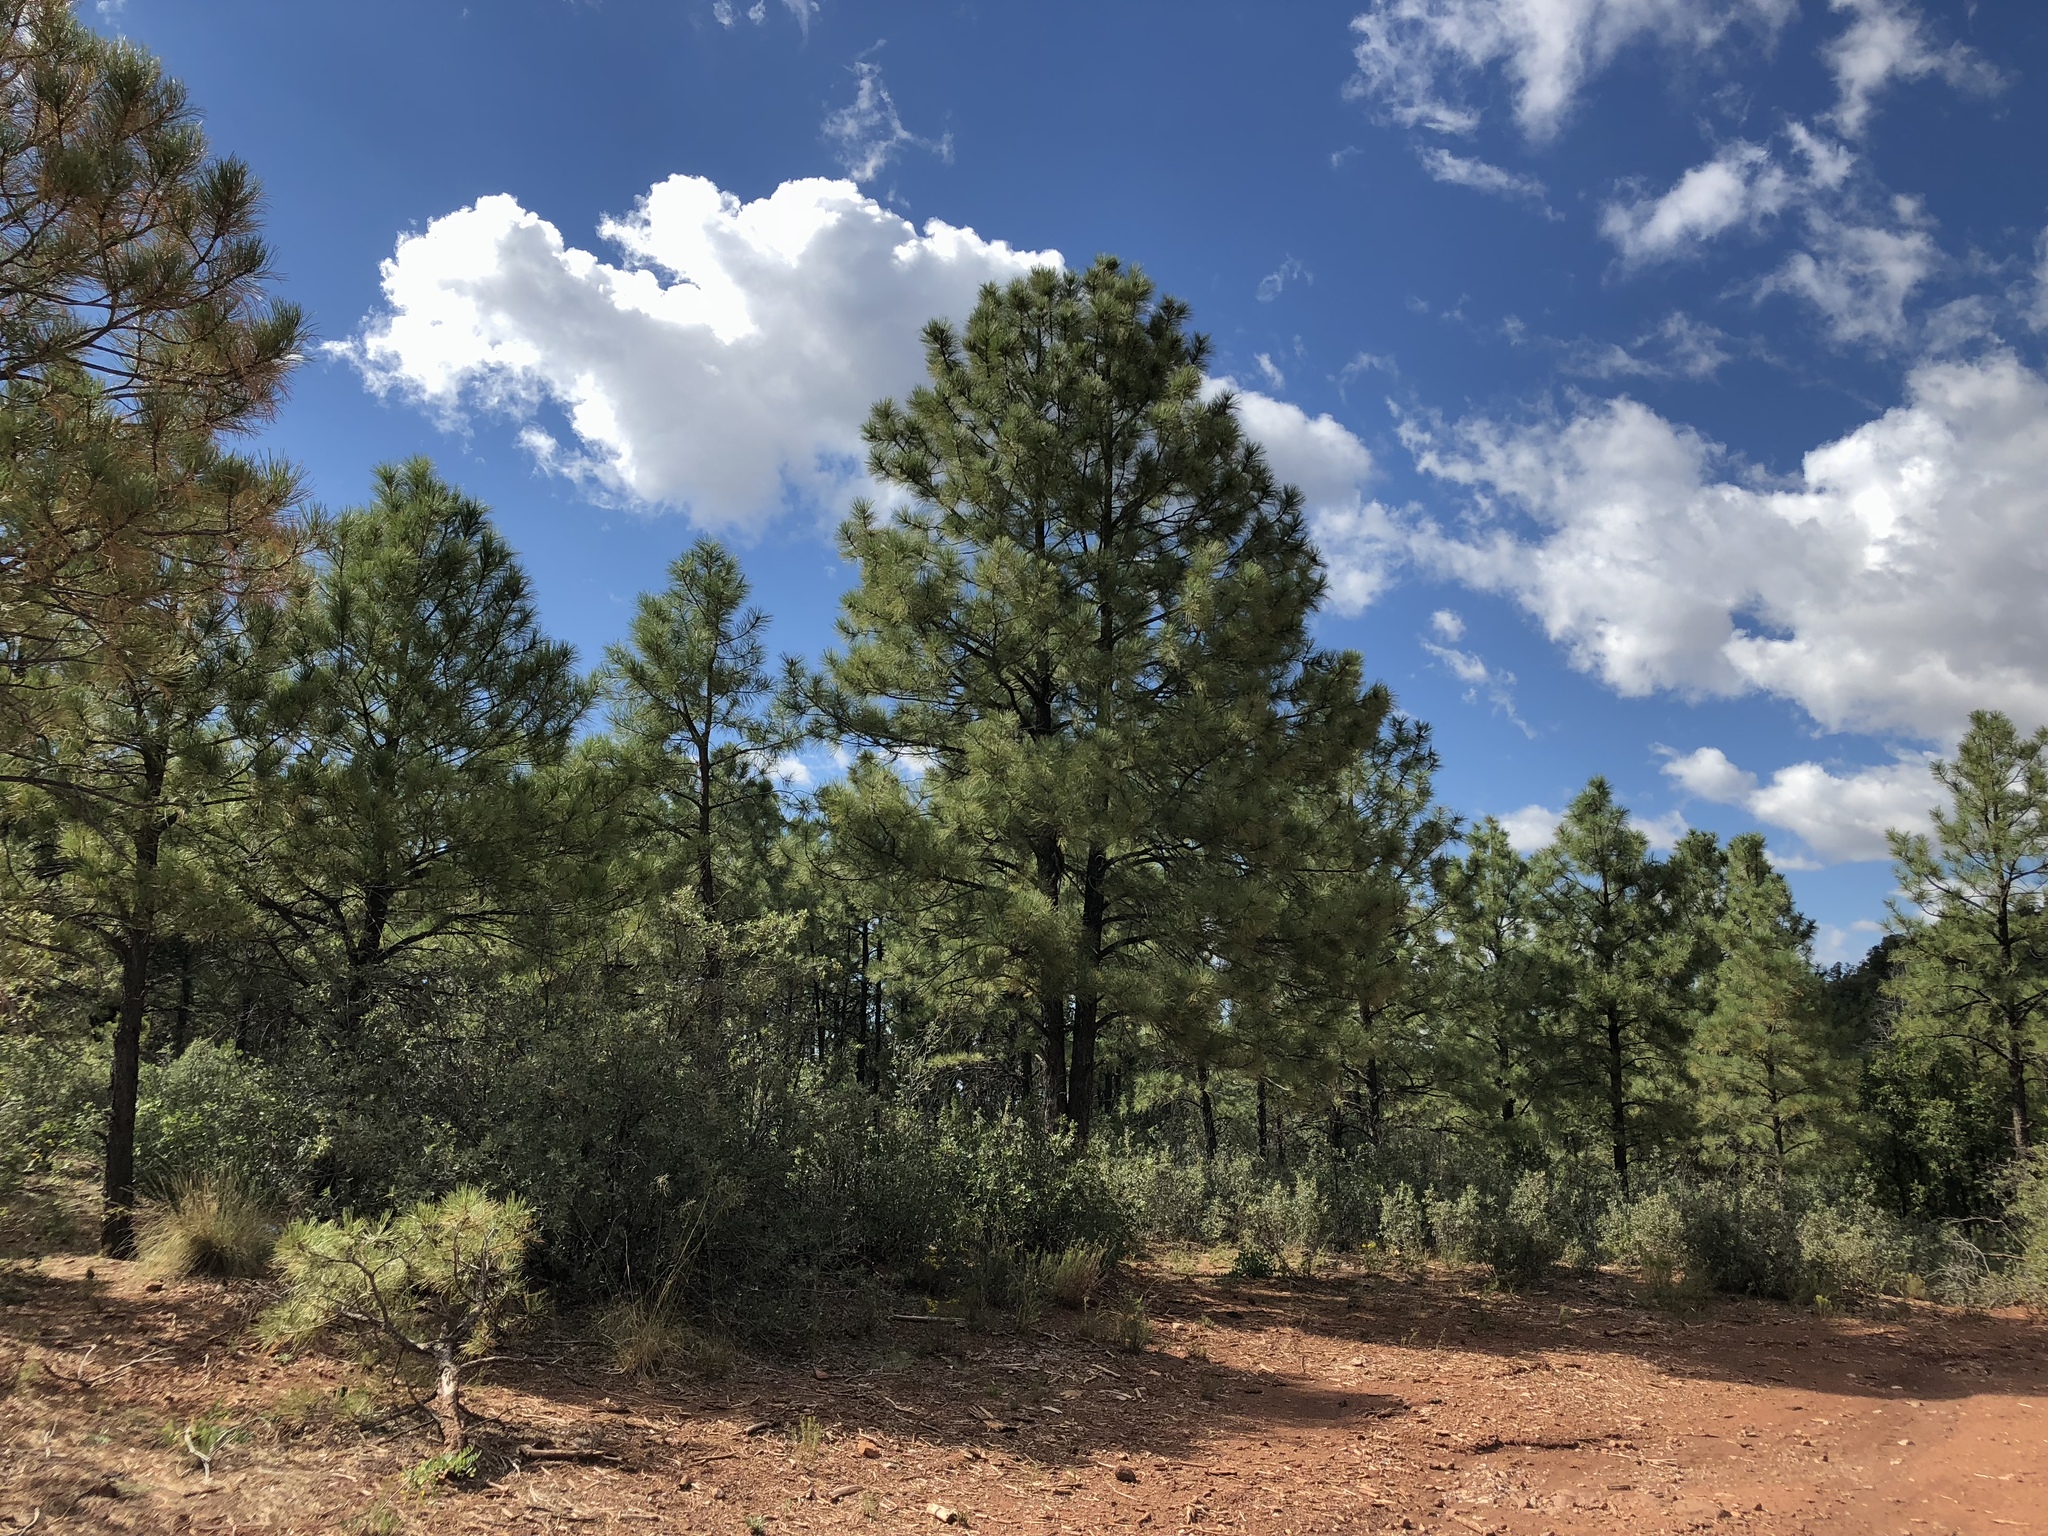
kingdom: Plantae
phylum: Tracheophyta
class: Pinopsida
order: Pinales
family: Pinaceae
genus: Pinus
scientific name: Pinus ponderosa
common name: Western yellow-pine
